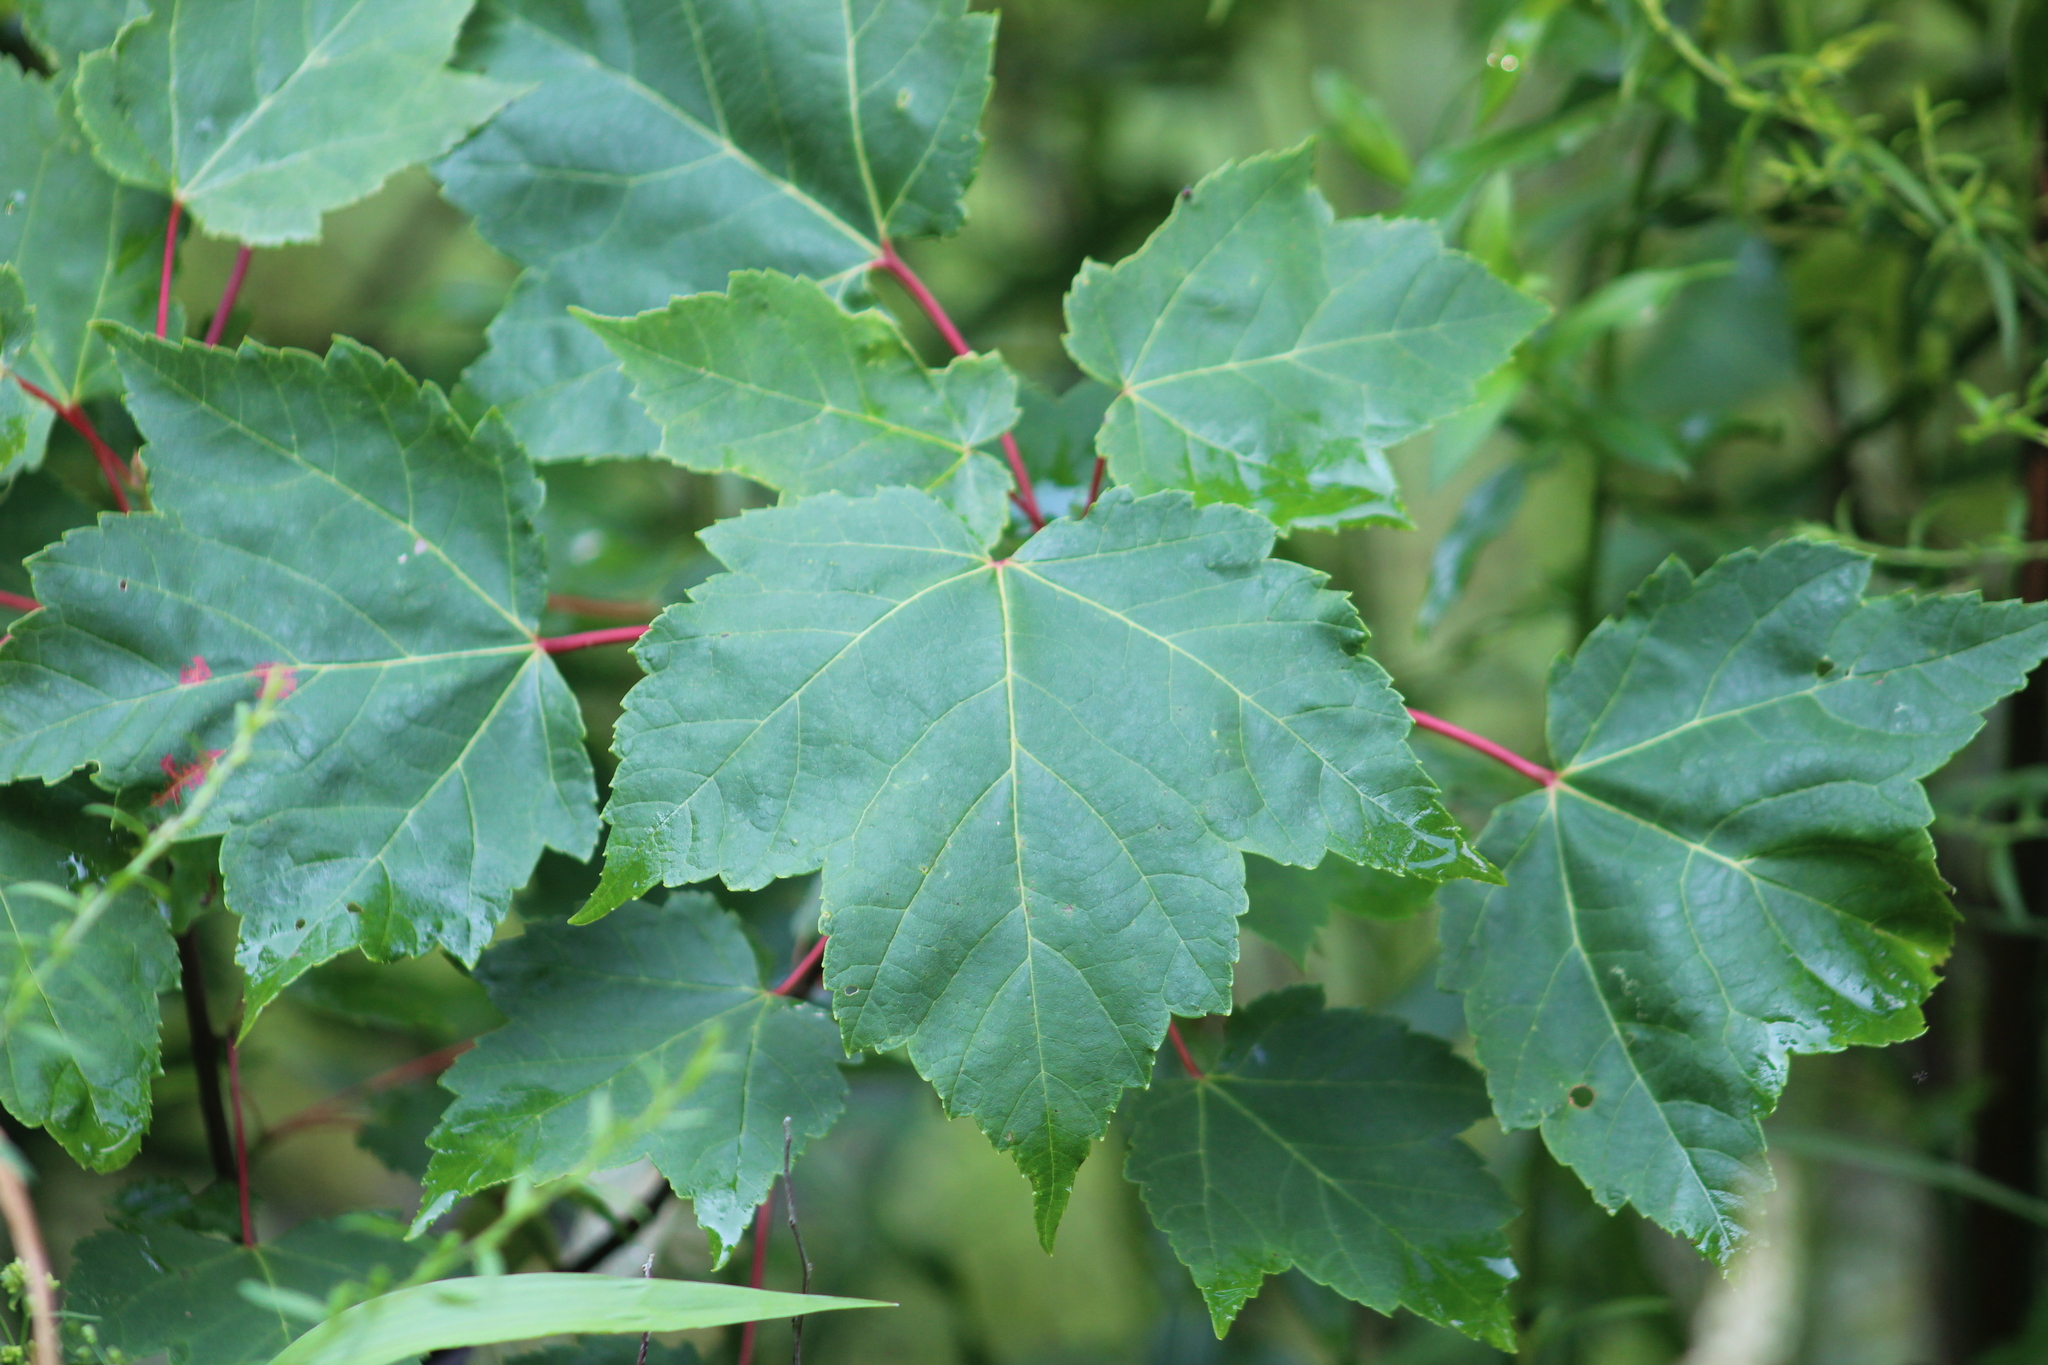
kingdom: Plantae
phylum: Tracheophyta
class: Magnoliopsida
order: Sapindales
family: Sapindaceae
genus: Acer
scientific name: Acer rubrum
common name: Red maple
